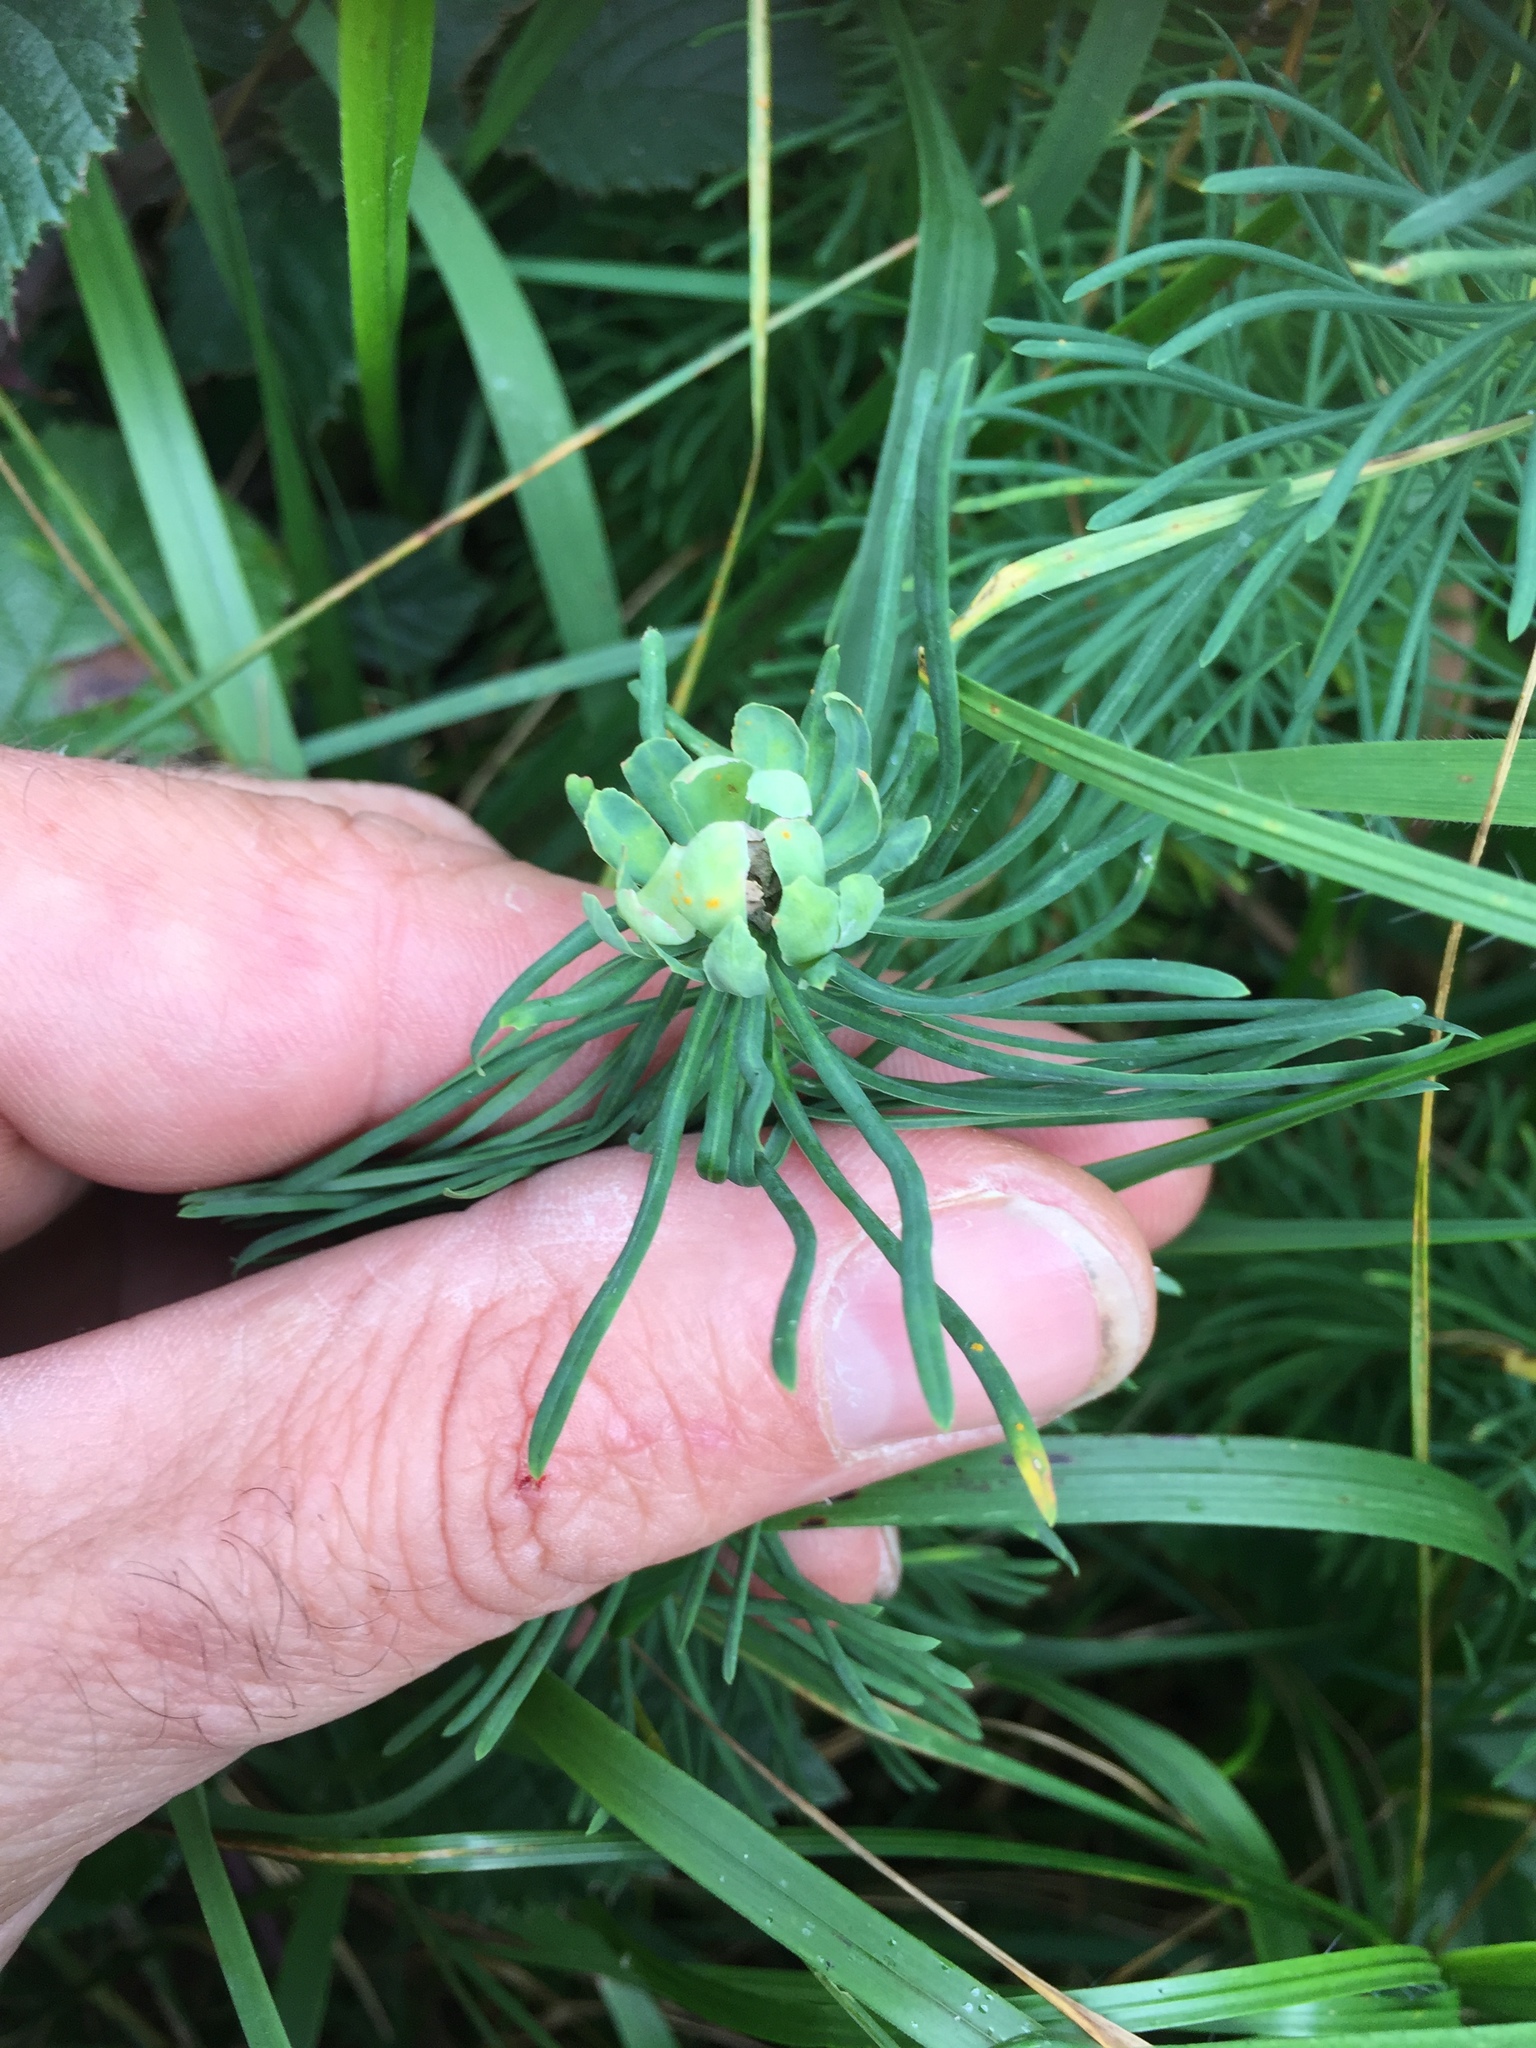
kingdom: Animalia
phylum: Arthropoda
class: Insecta
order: Diptera
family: Cecidomyiidae
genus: Spurgia
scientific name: Spurgia euphorbiae
